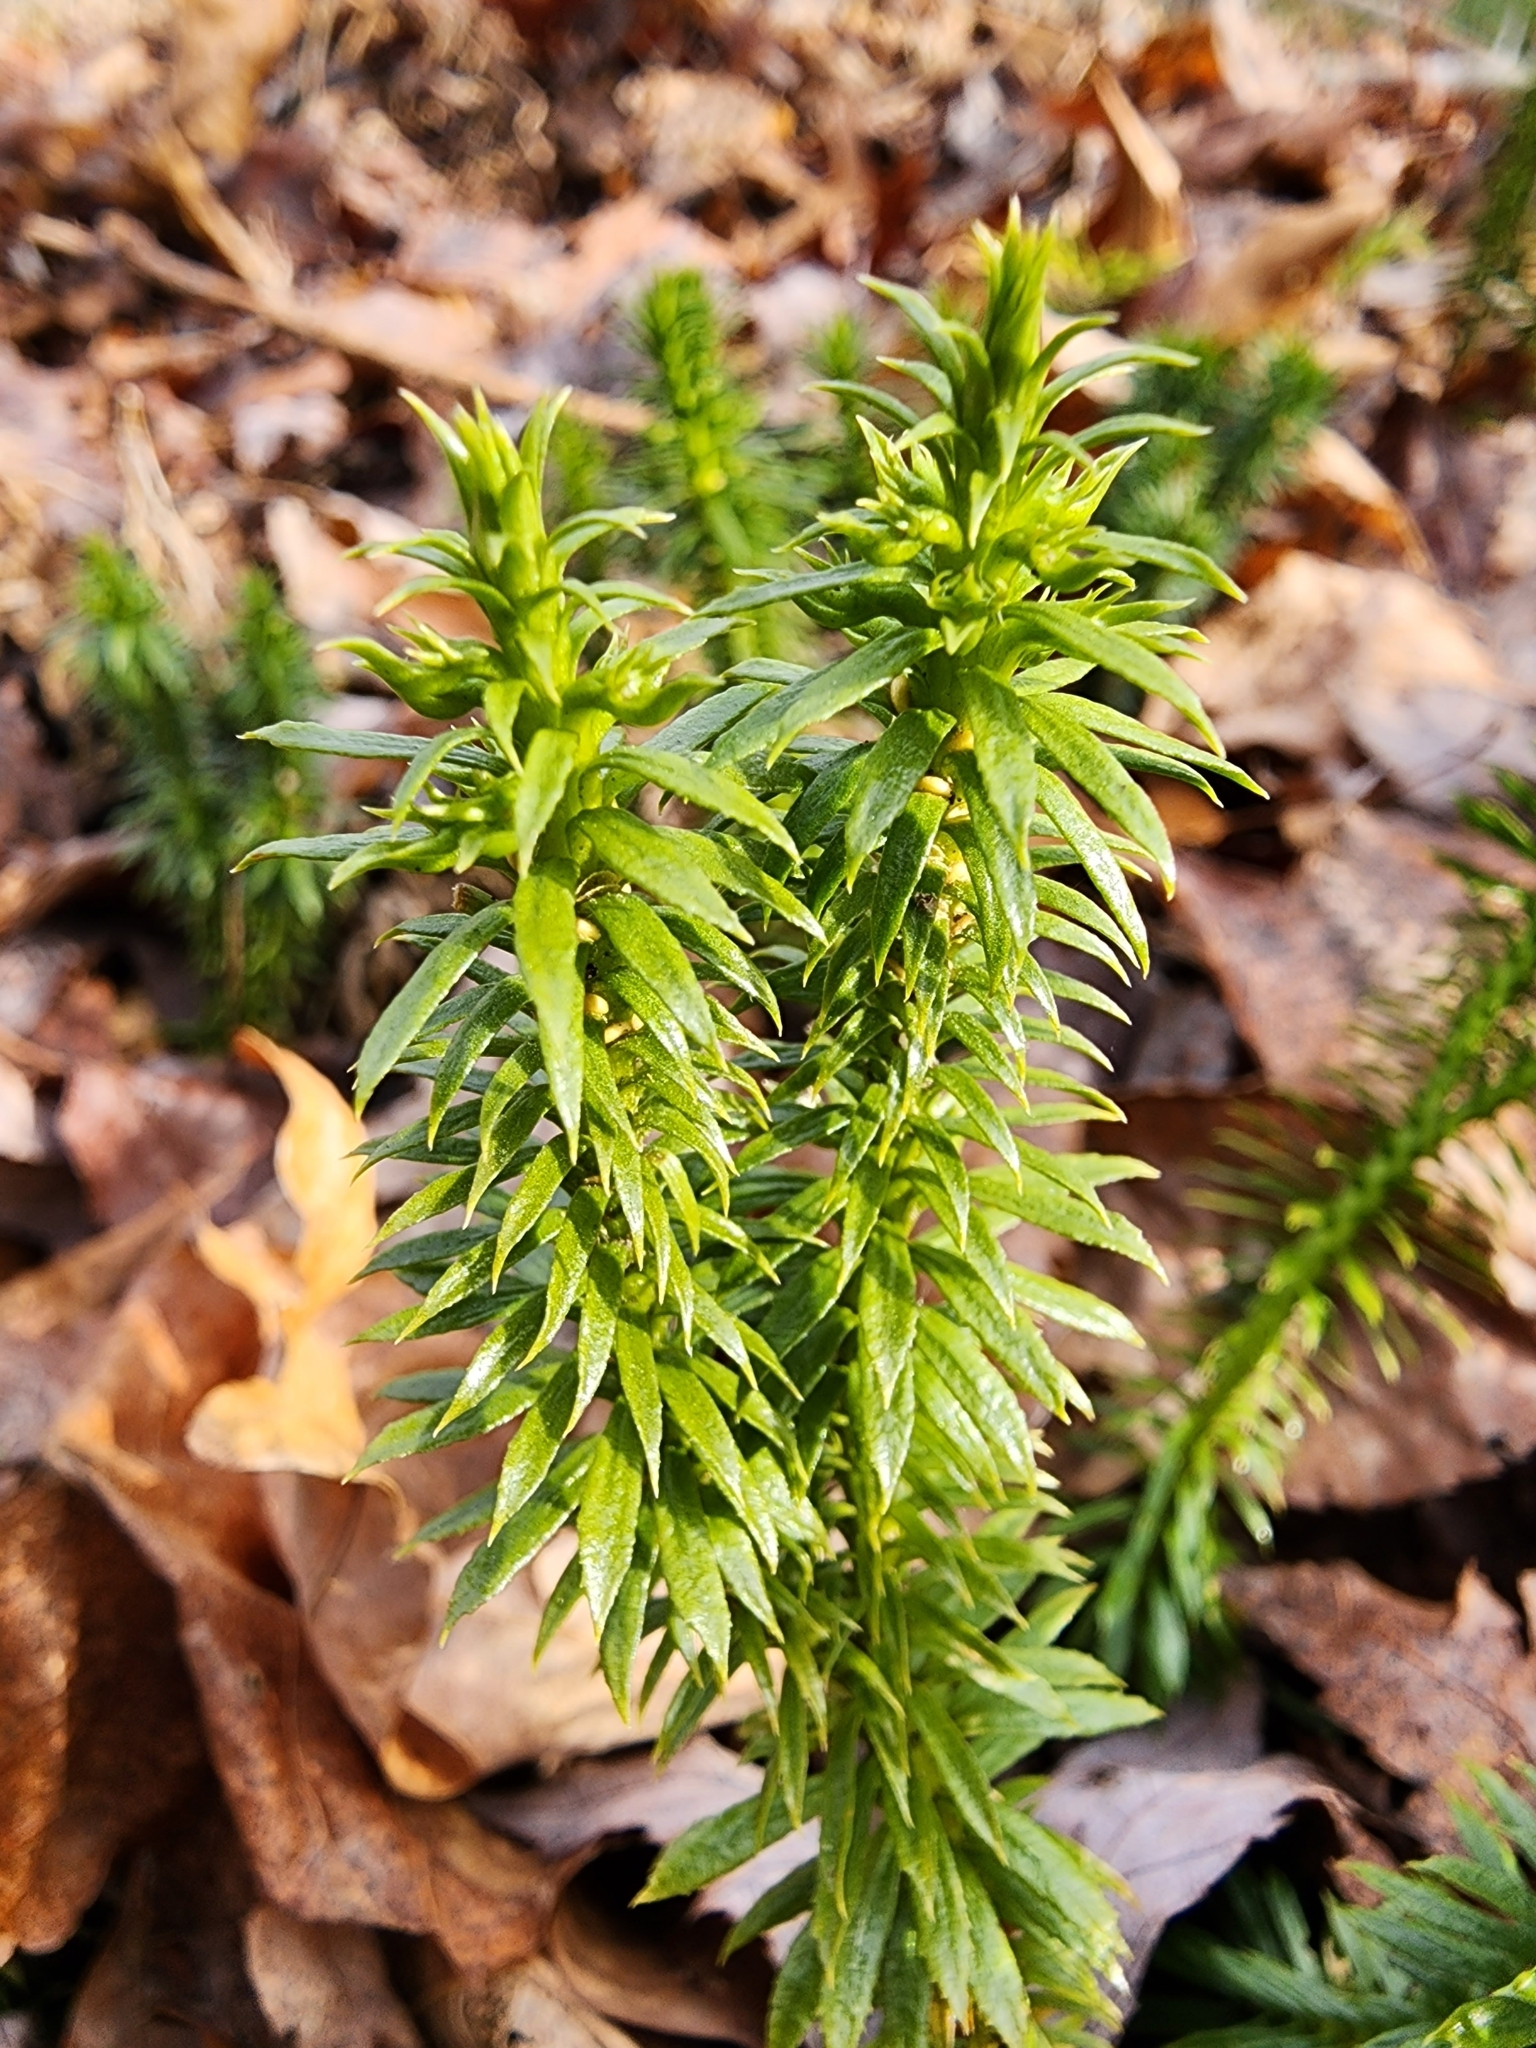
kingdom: Plantae
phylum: Tracheophyta
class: Lycopodiopsida
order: Lycopodiales
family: Lycopodiaceae
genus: Huperzia
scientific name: Huperzia lucidula
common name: Shining clubmoss
